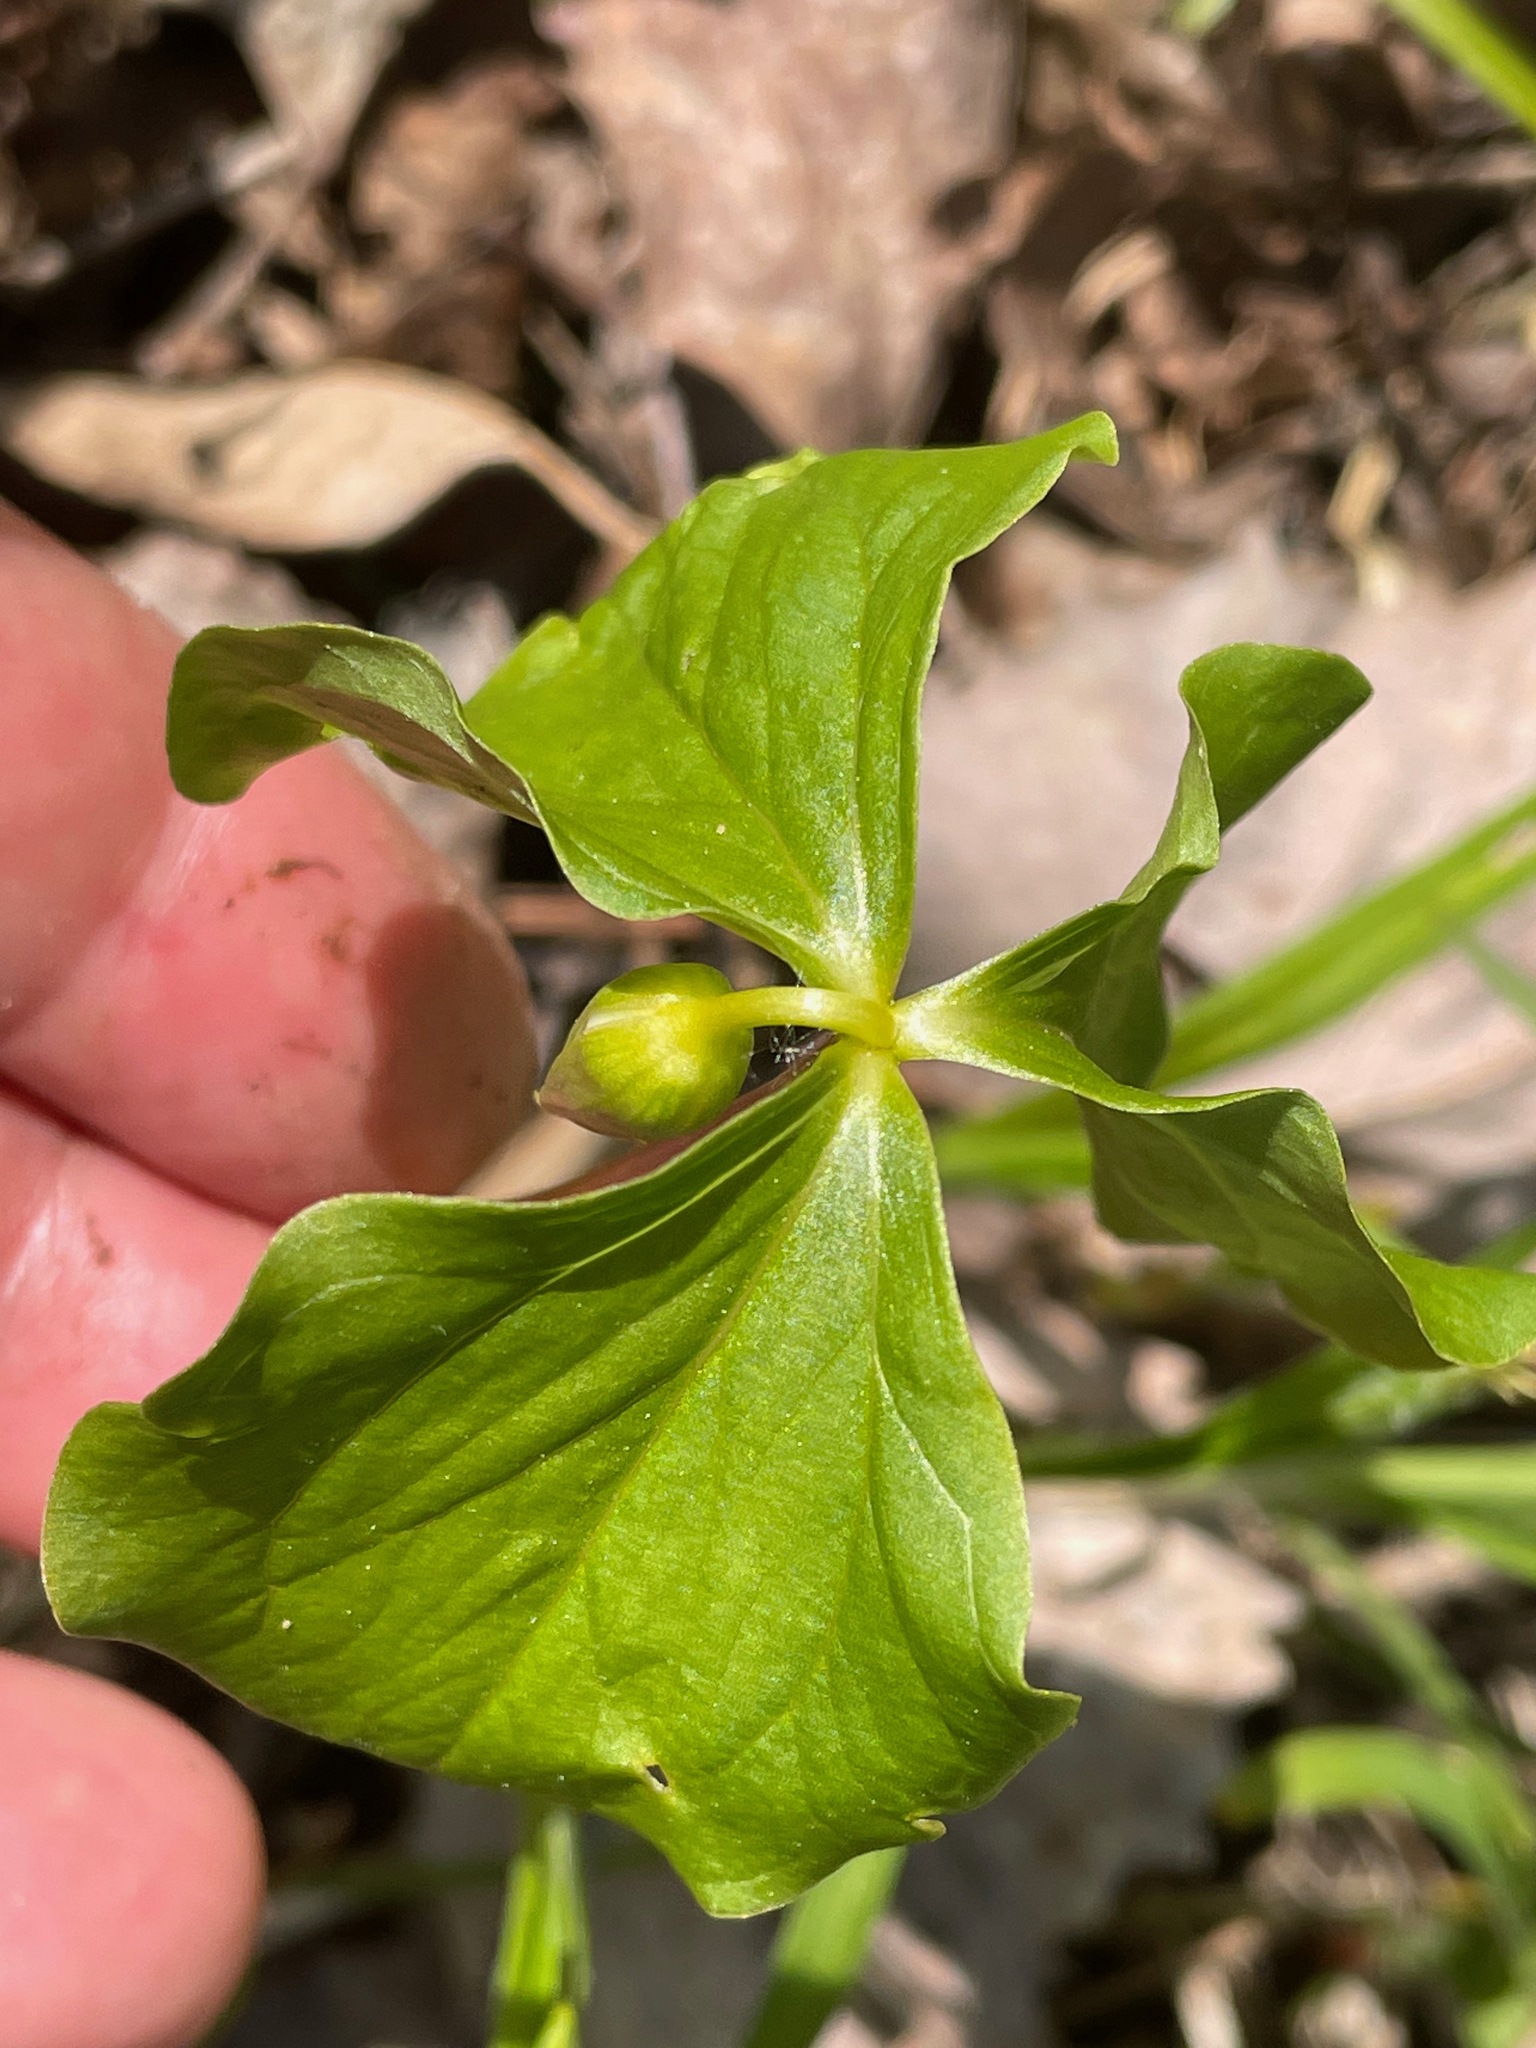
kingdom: Plantae
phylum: Tracheophyta
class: Liliopsida
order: Liliales
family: Melanthiaceae
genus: Trillium
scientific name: Trillium cernuum
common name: Nodding trillium
